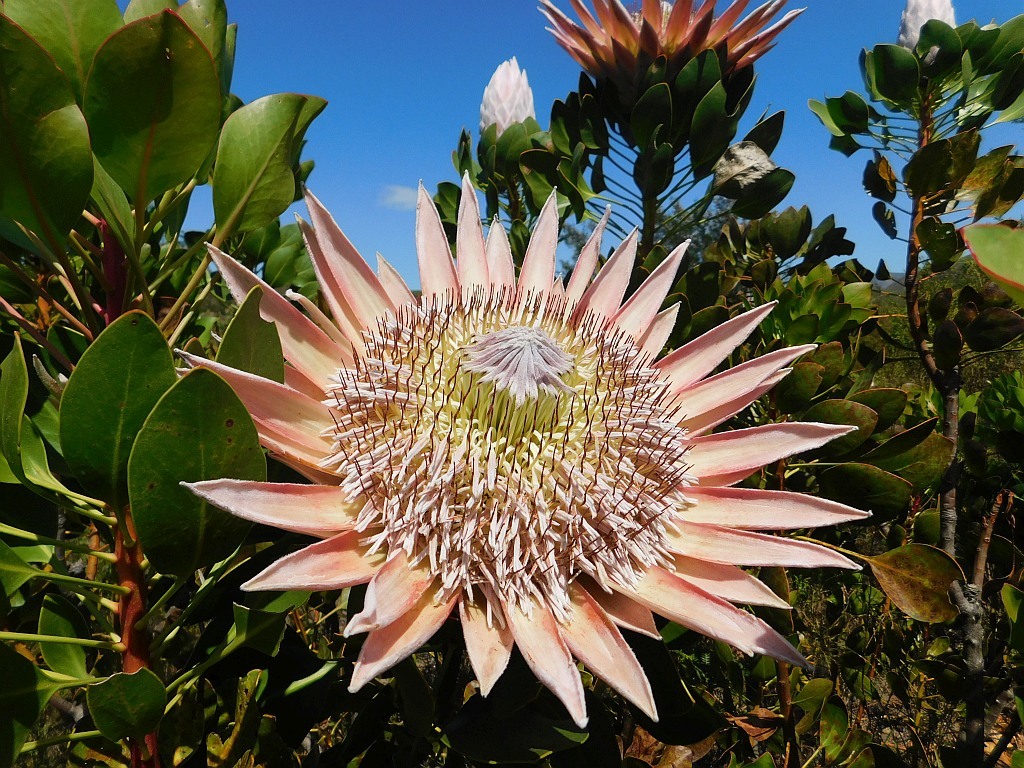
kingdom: Plantae
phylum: Tracheophyta
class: Magnoliopsida
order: Proteales
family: Proteaceae
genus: Protea
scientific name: Protea cynaroides
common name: King protea
